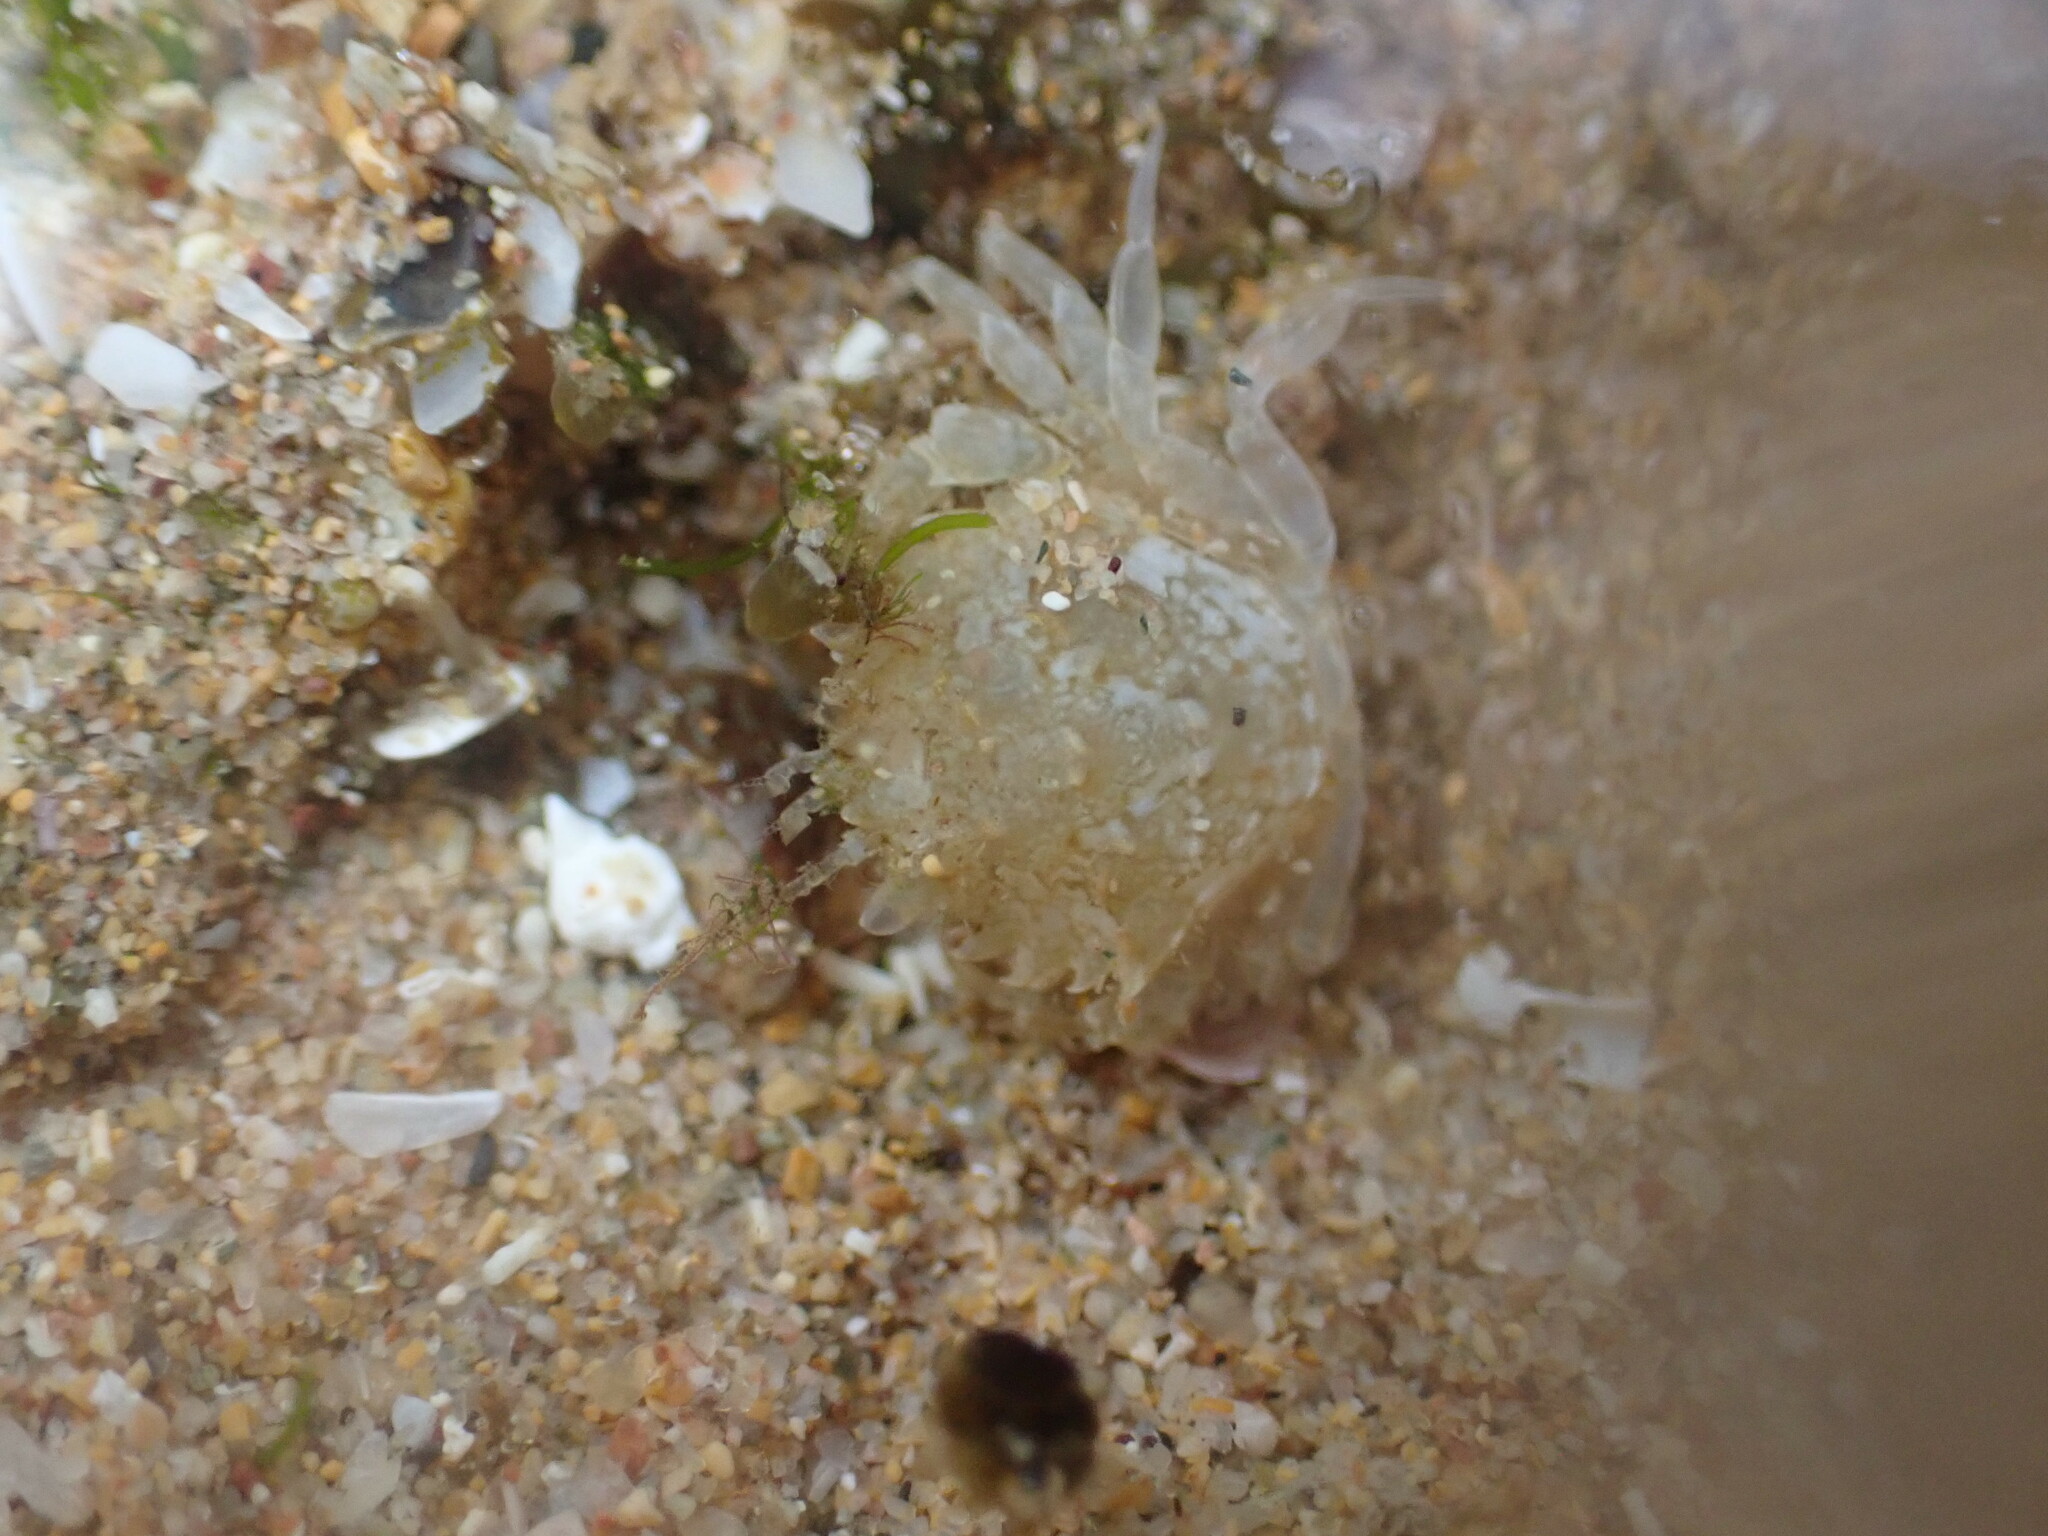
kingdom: Animalia
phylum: Arthropoda
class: Malacostraca
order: Decapoda
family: Pirimelidae
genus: Pirimela
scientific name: Pirimela denticulata
